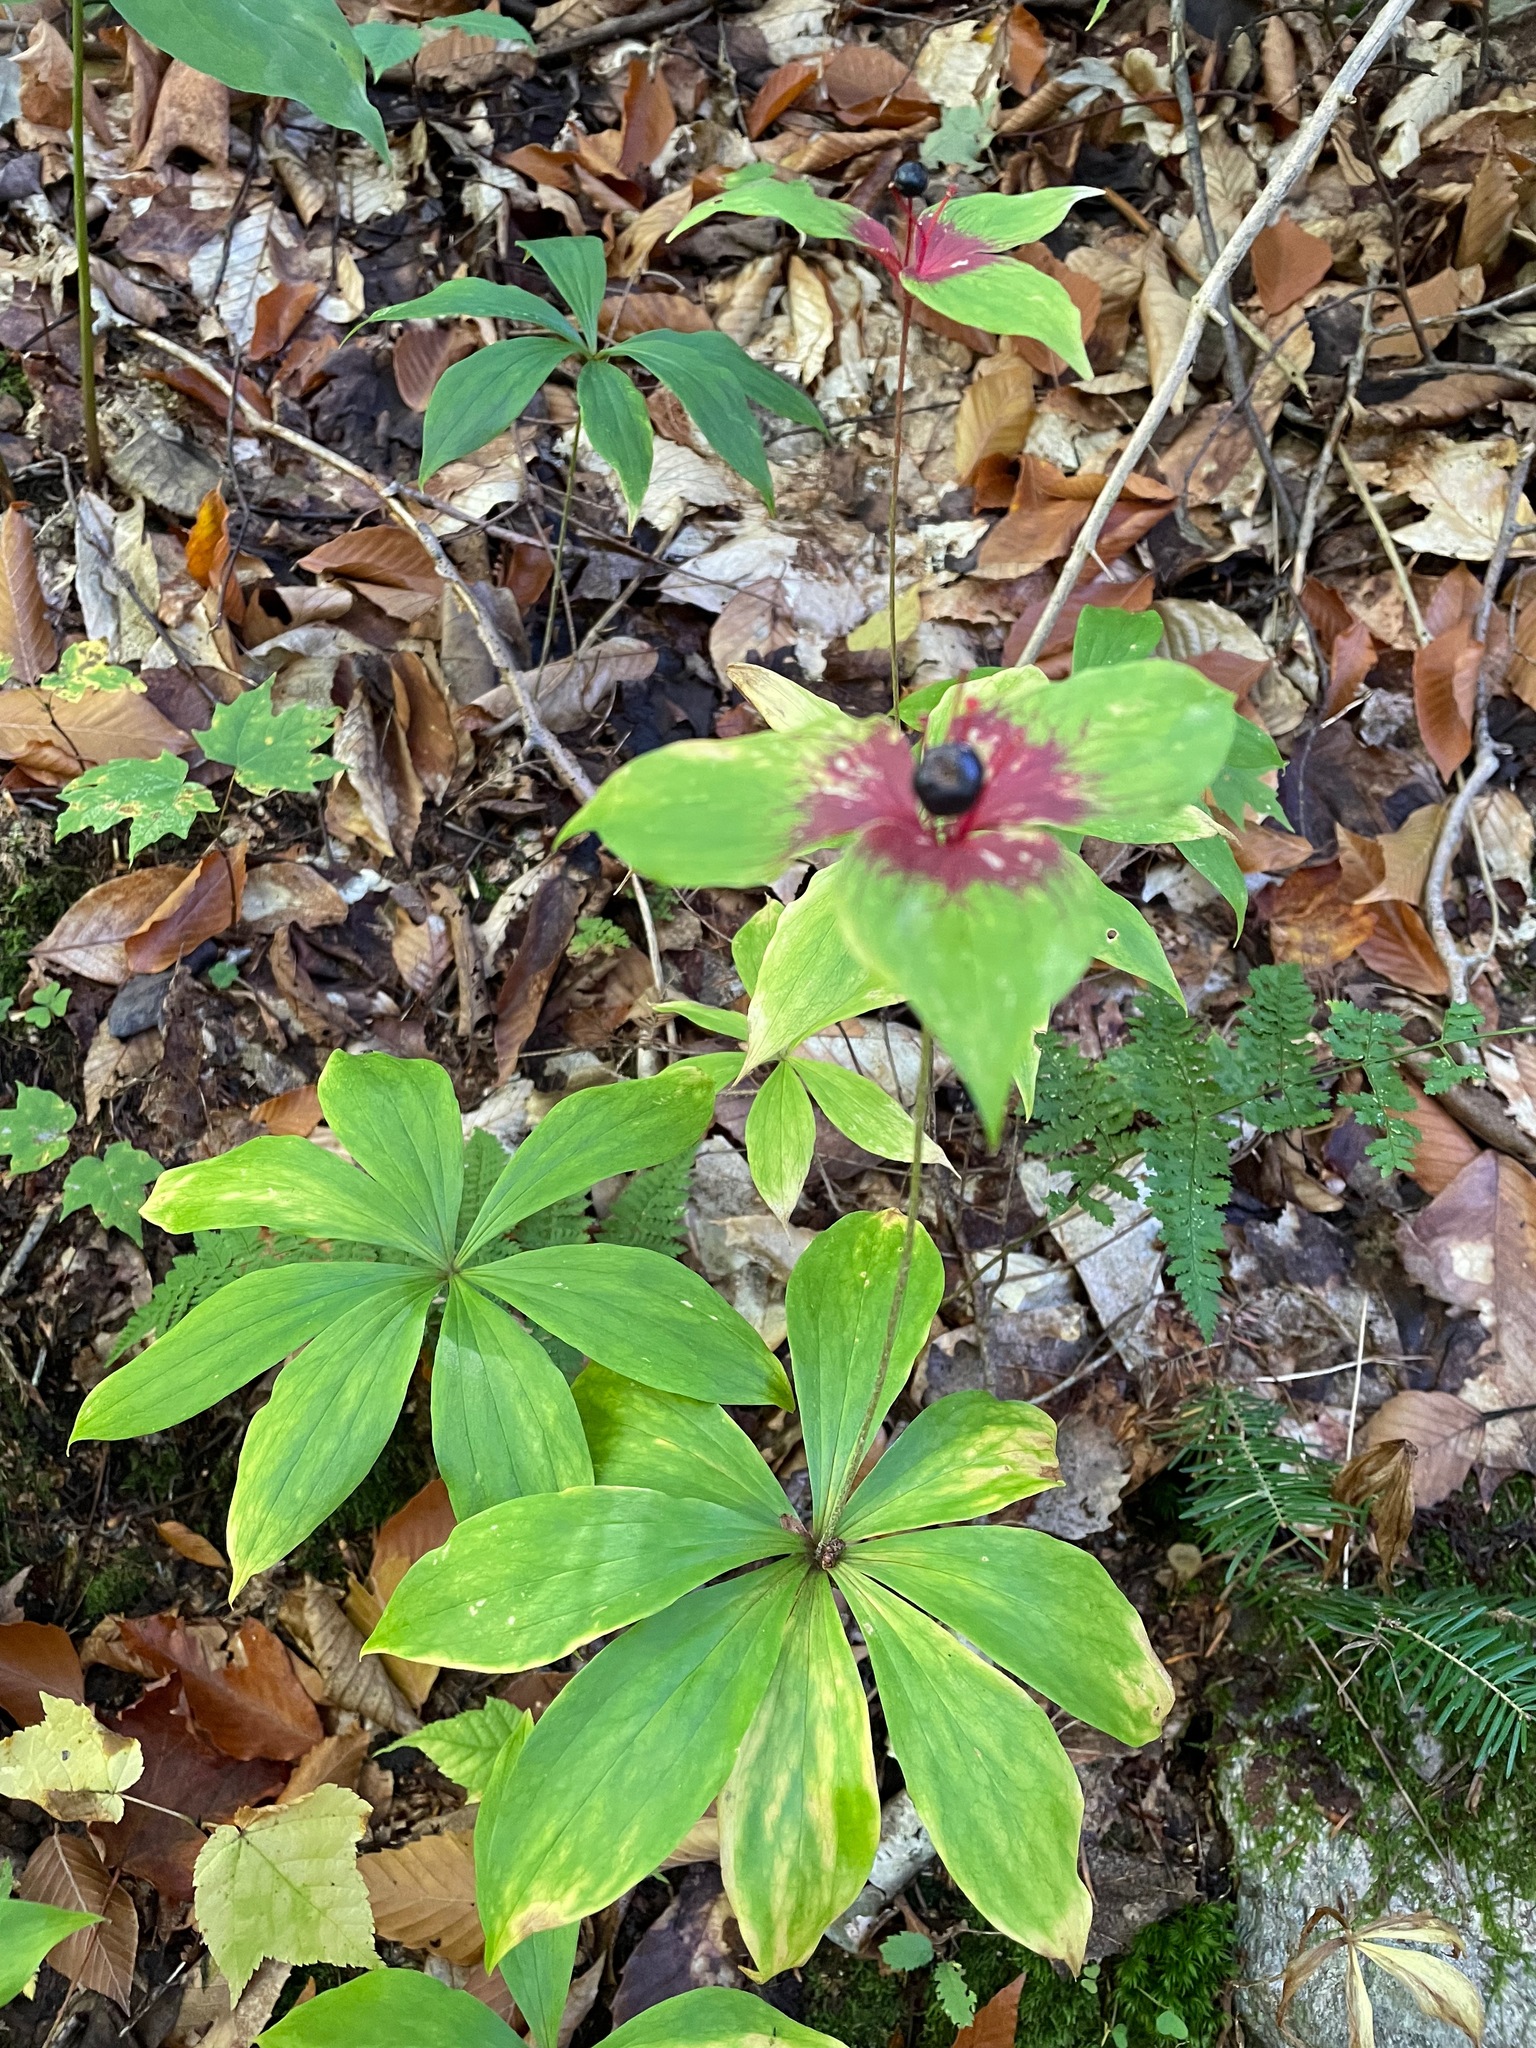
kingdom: Plantae
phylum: Tracheophyta
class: Liliopsida
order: Liliales
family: Liliaceae
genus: Medeola
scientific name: Medeola virginiana
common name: Indian cucumber-root
